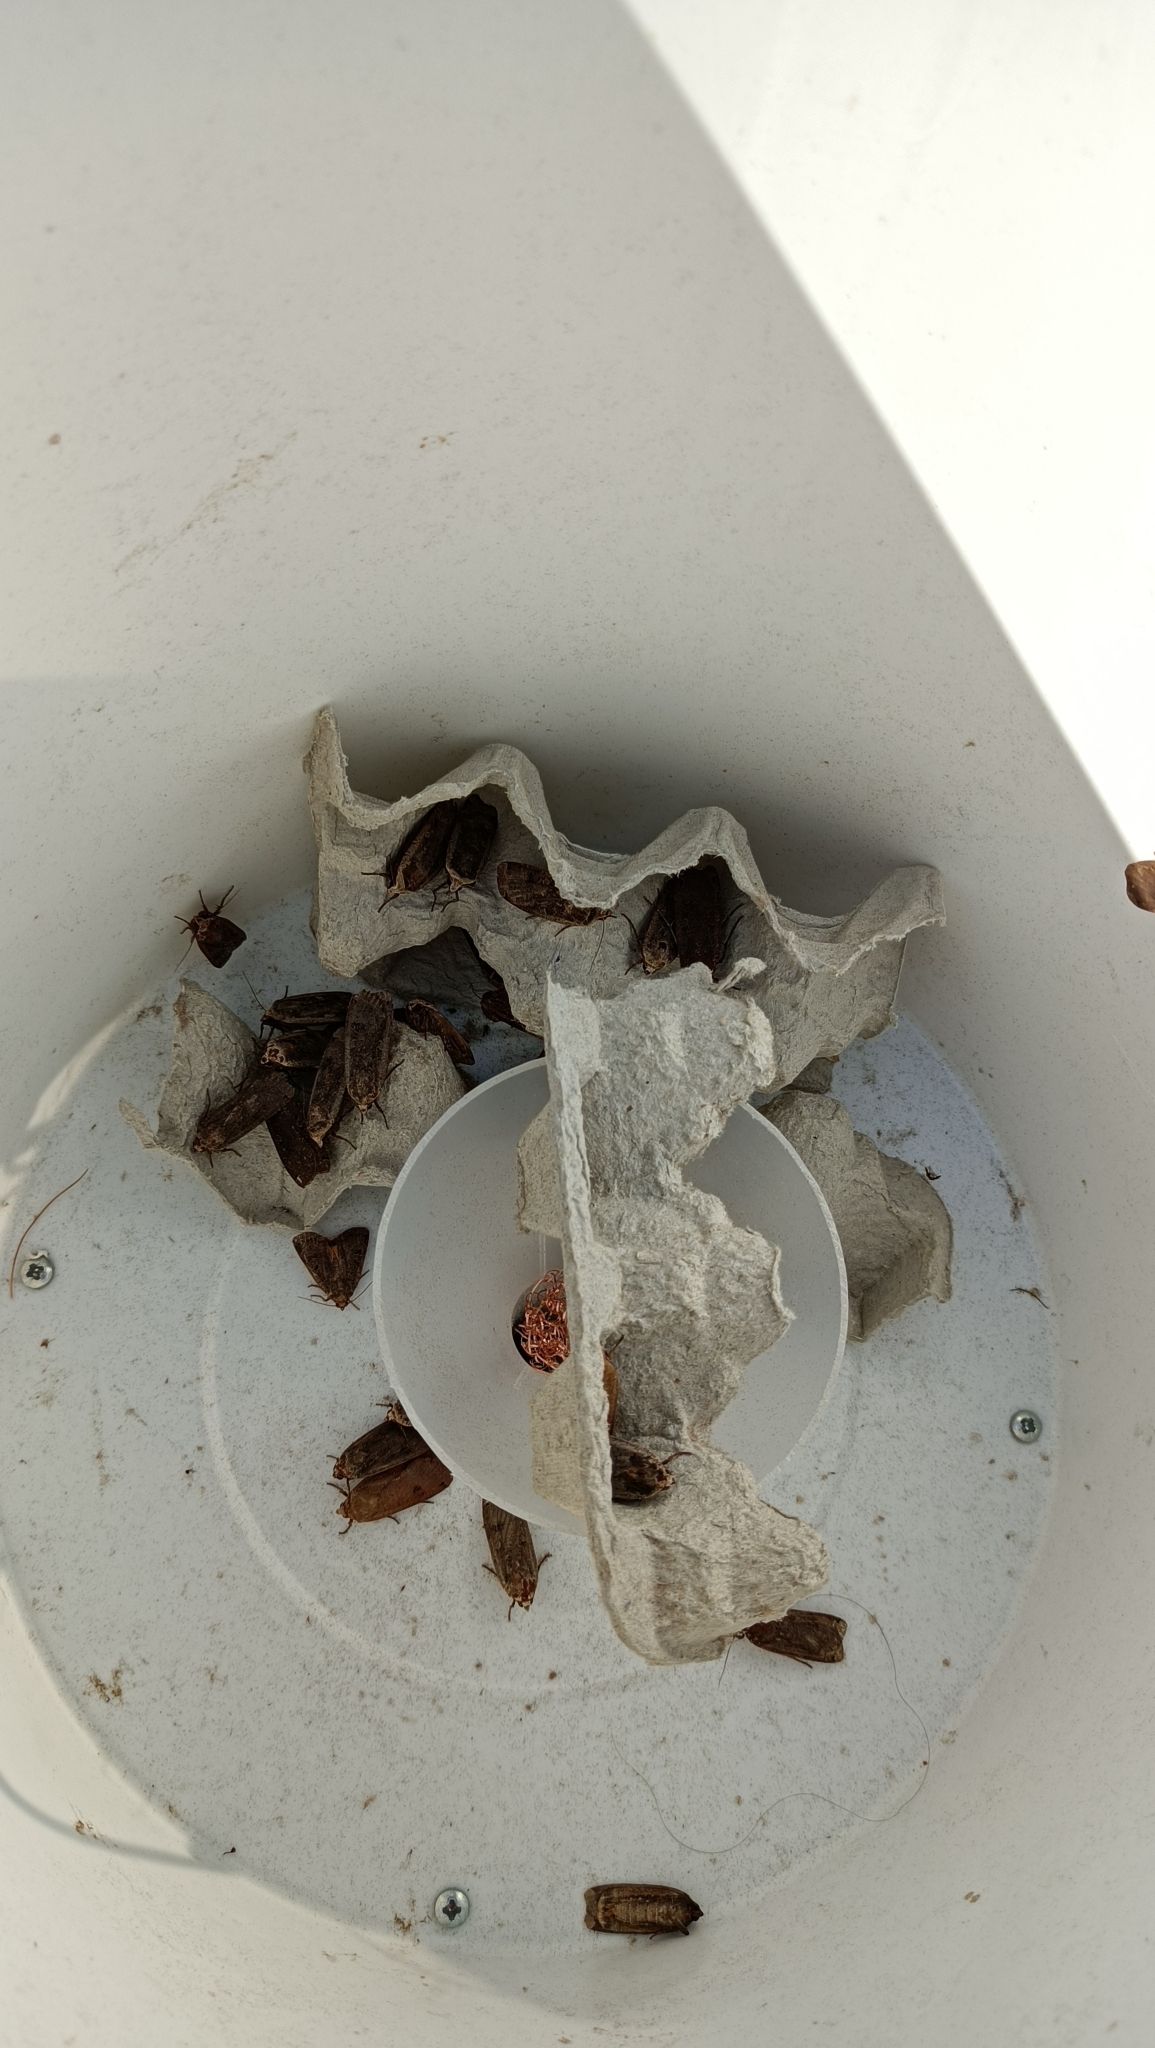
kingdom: Animalia
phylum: Arthropoda
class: Insecta
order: Lepidoptera
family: Noctuidae
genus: Noctua
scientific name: Noctua pronuba
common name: Large yellow underwing
